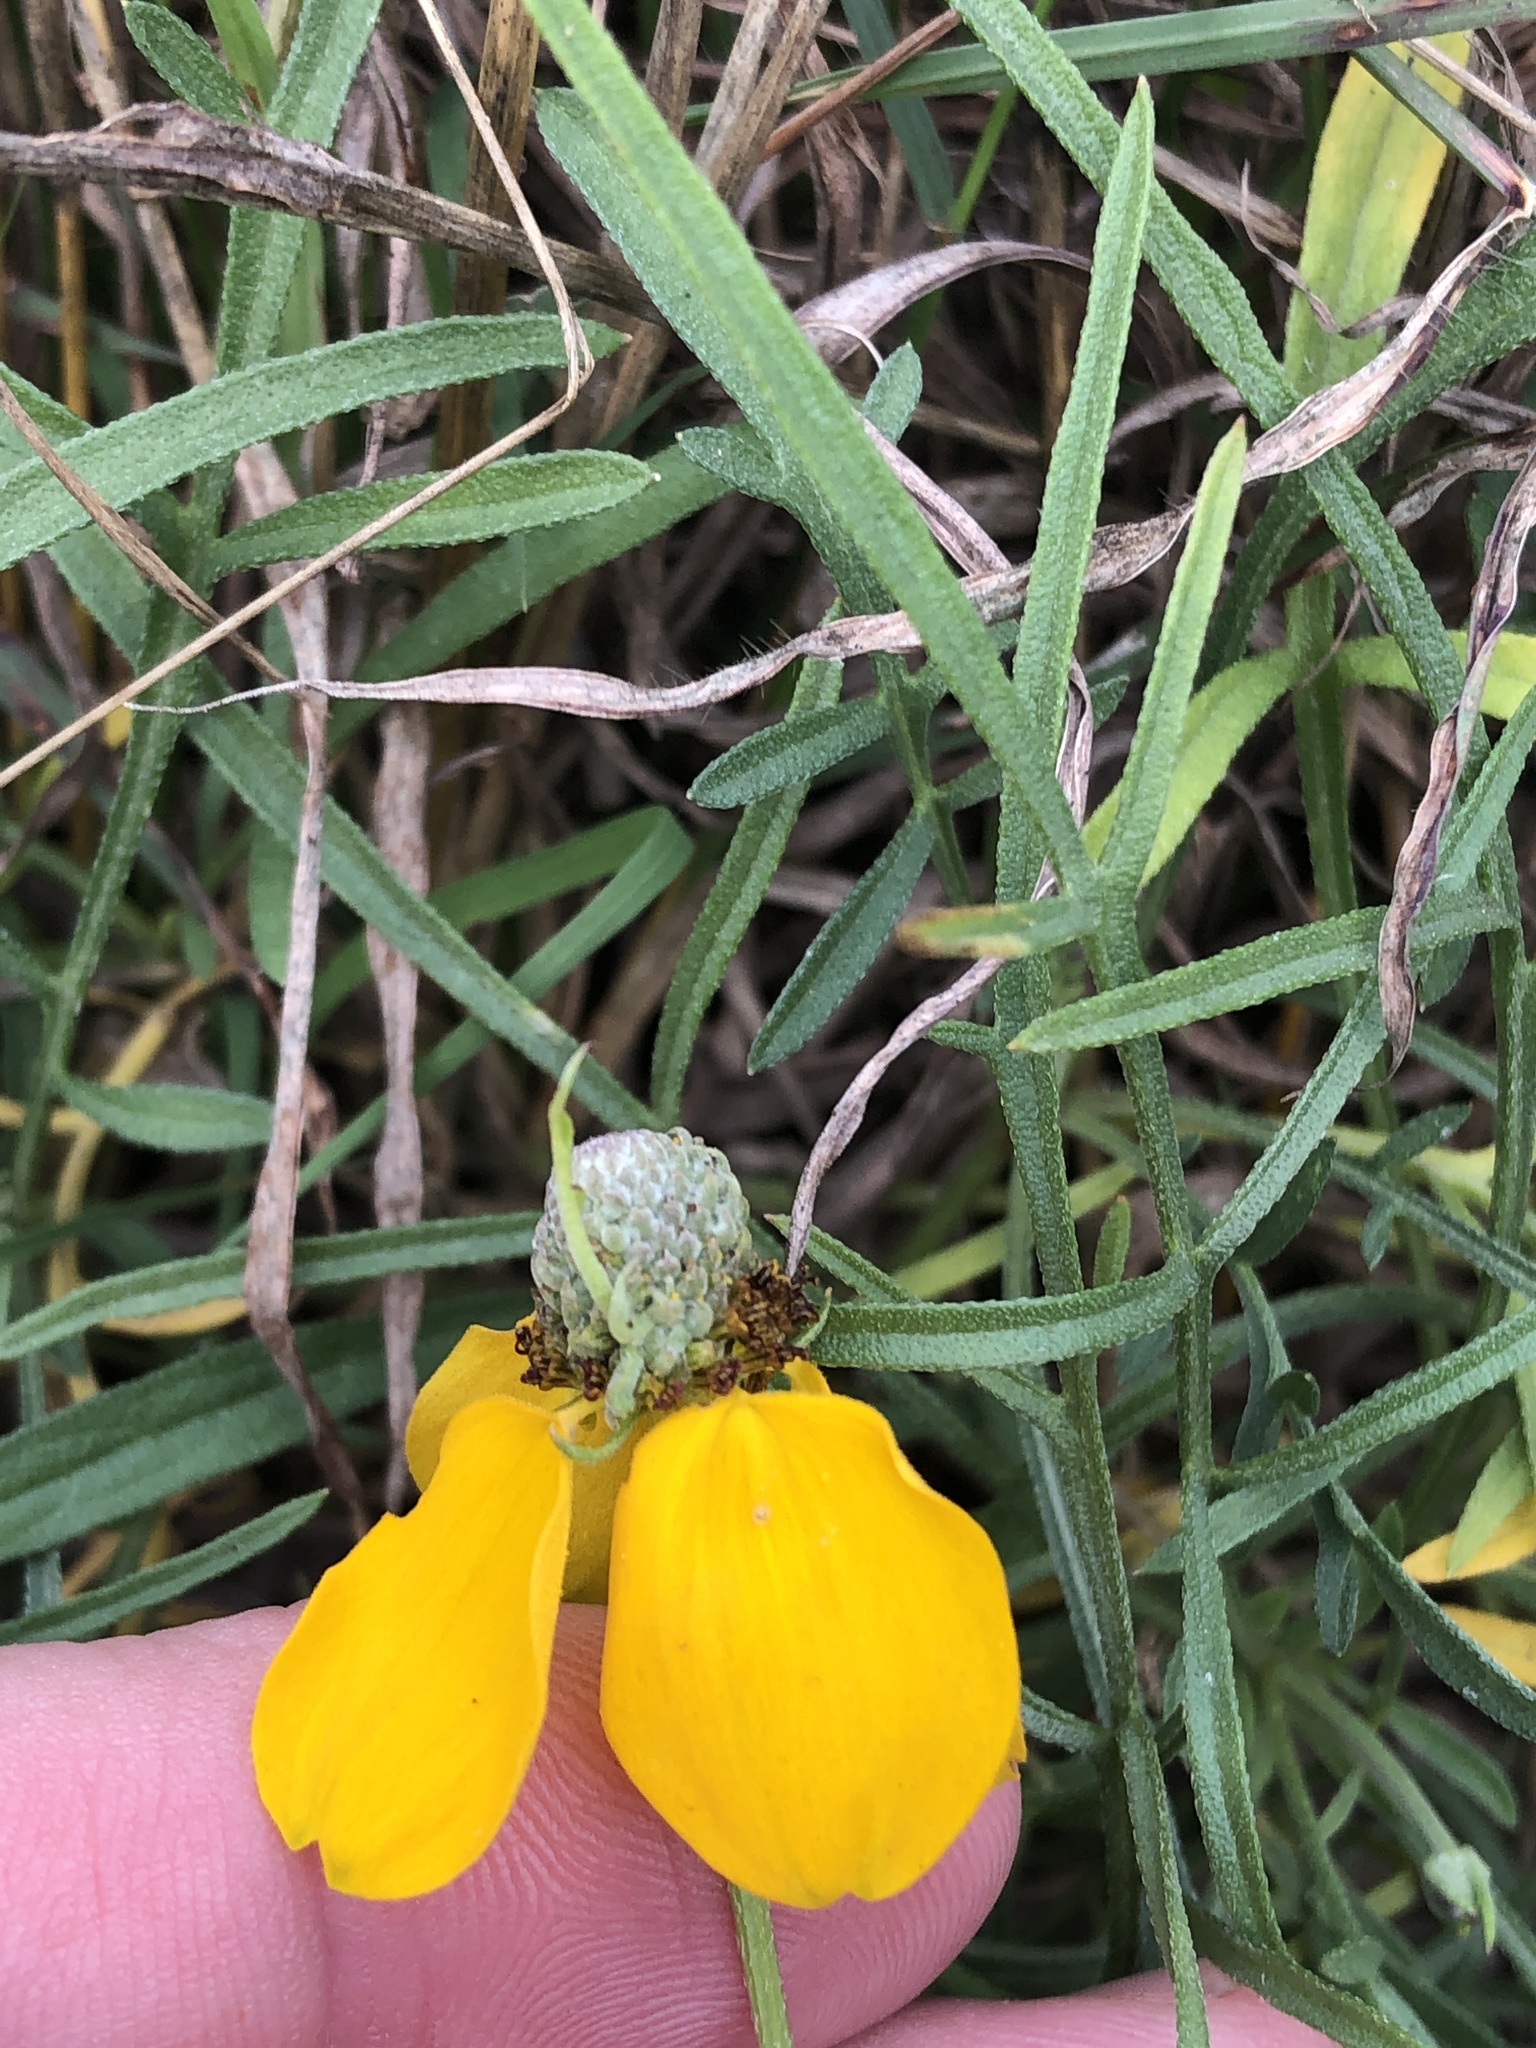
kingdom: Plantae
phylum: Tracheophyta
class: Magnoliopsida
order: Asterales
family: Asteraceae
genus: Ratibida
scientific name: Ratibida columnifera
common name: Prairie coneflower
